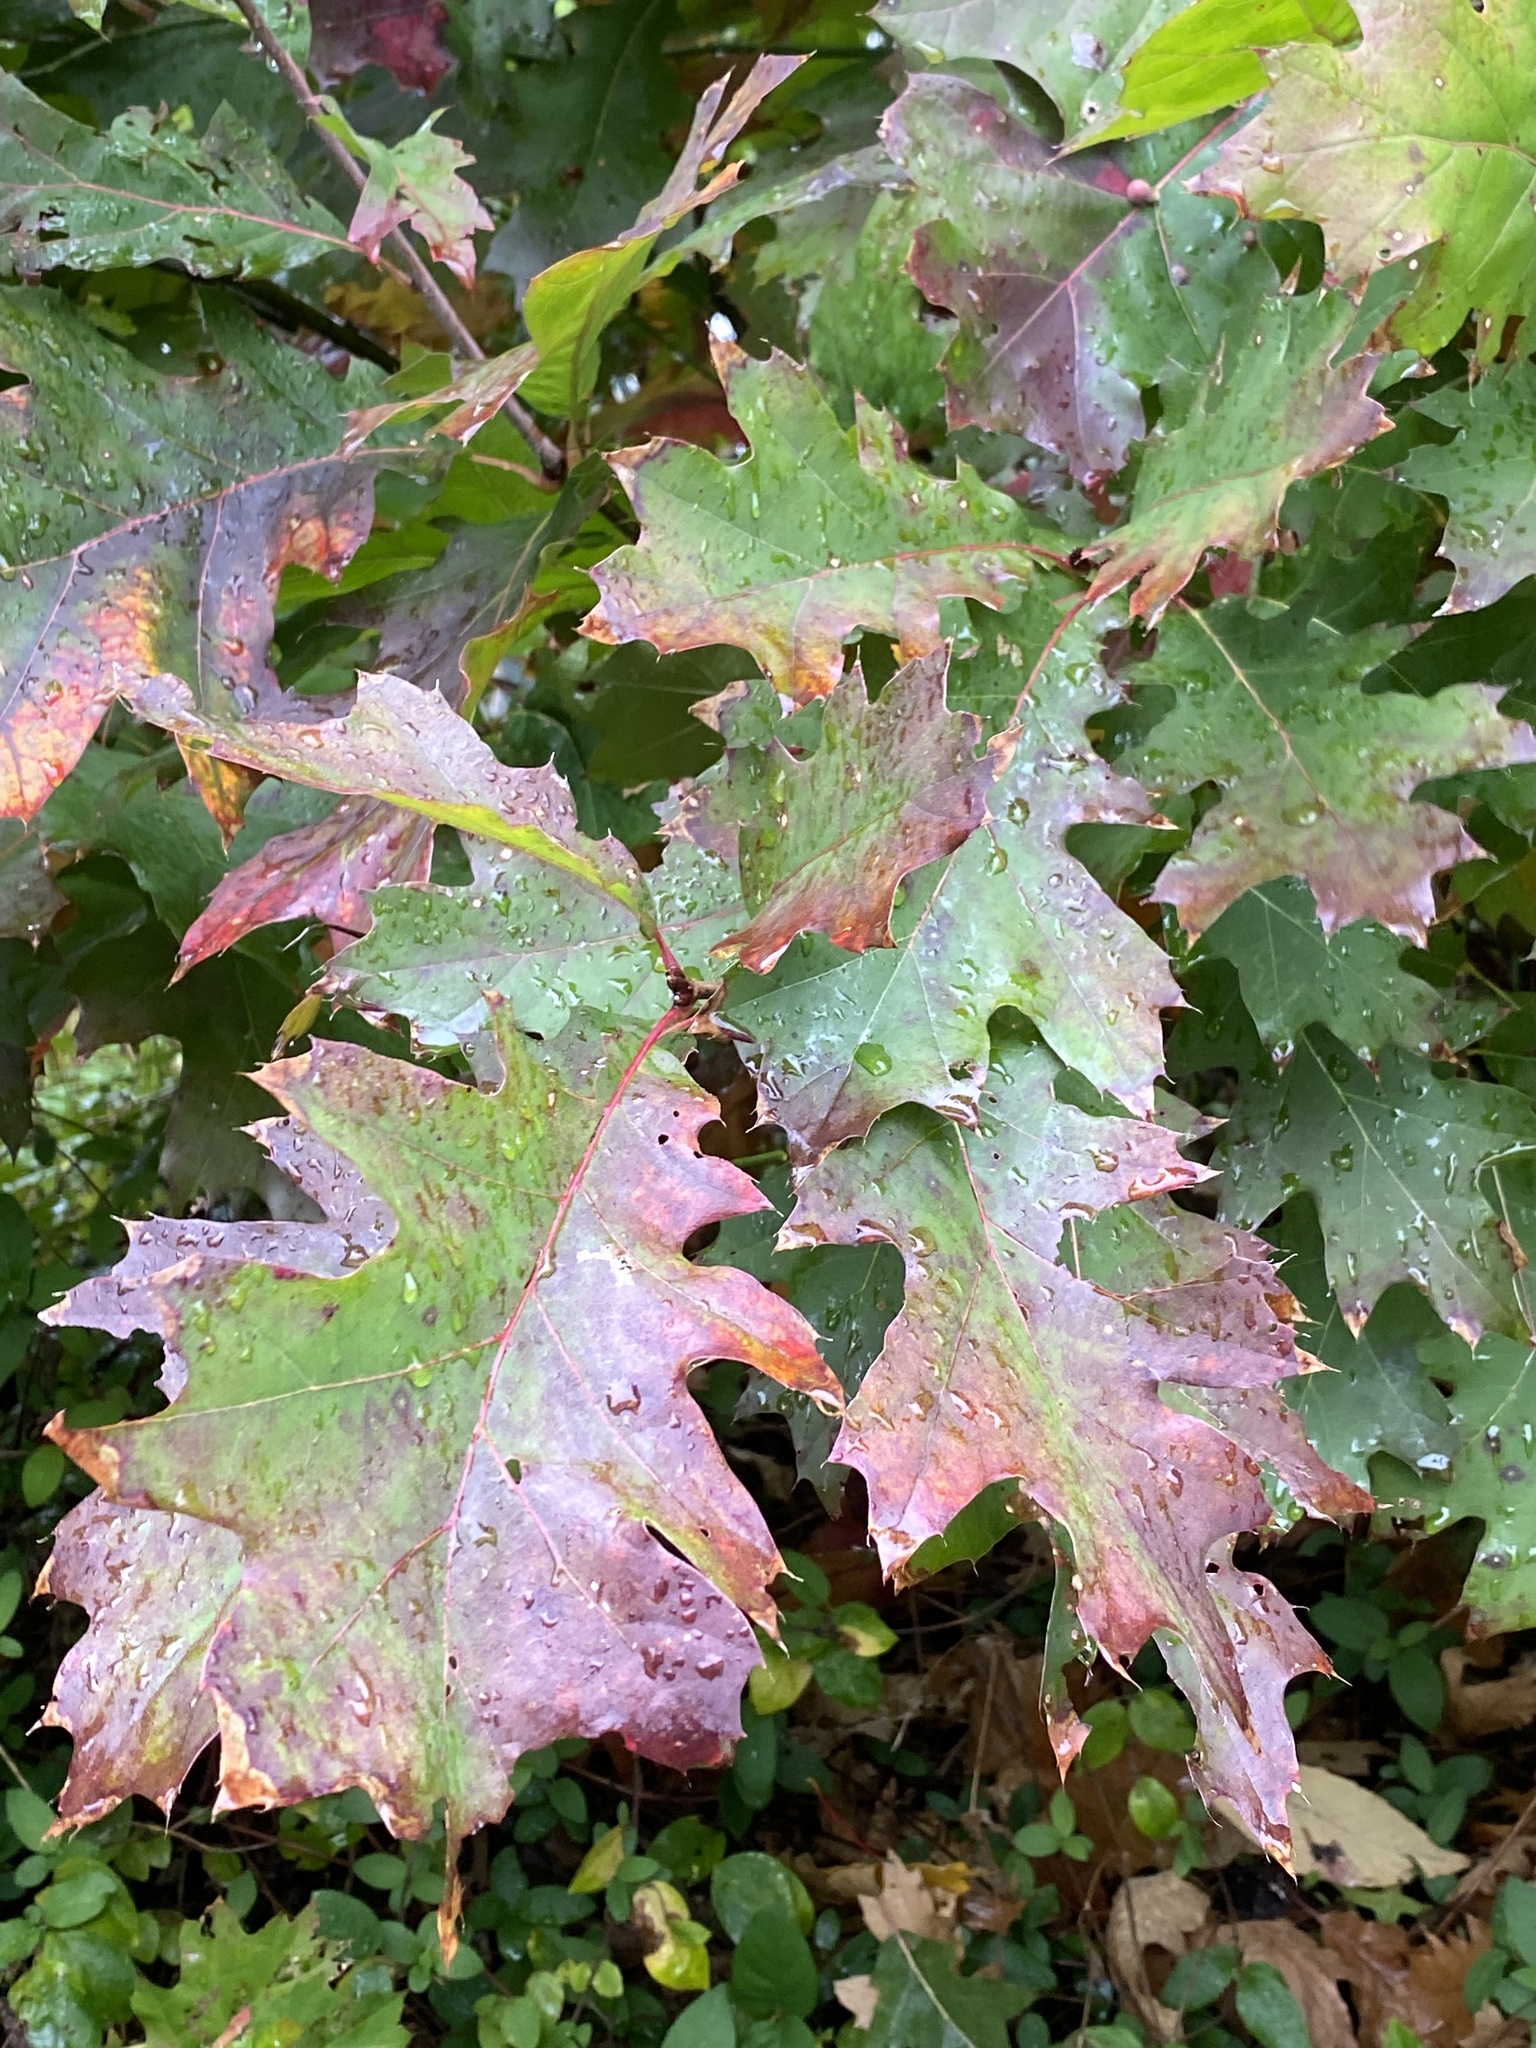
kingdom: Plantae
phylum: Tracheophyta
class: Magnoliopsida
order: Fagales
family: Fagaceae
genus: Quercus
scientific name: Quercus rubra
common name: Red oak
